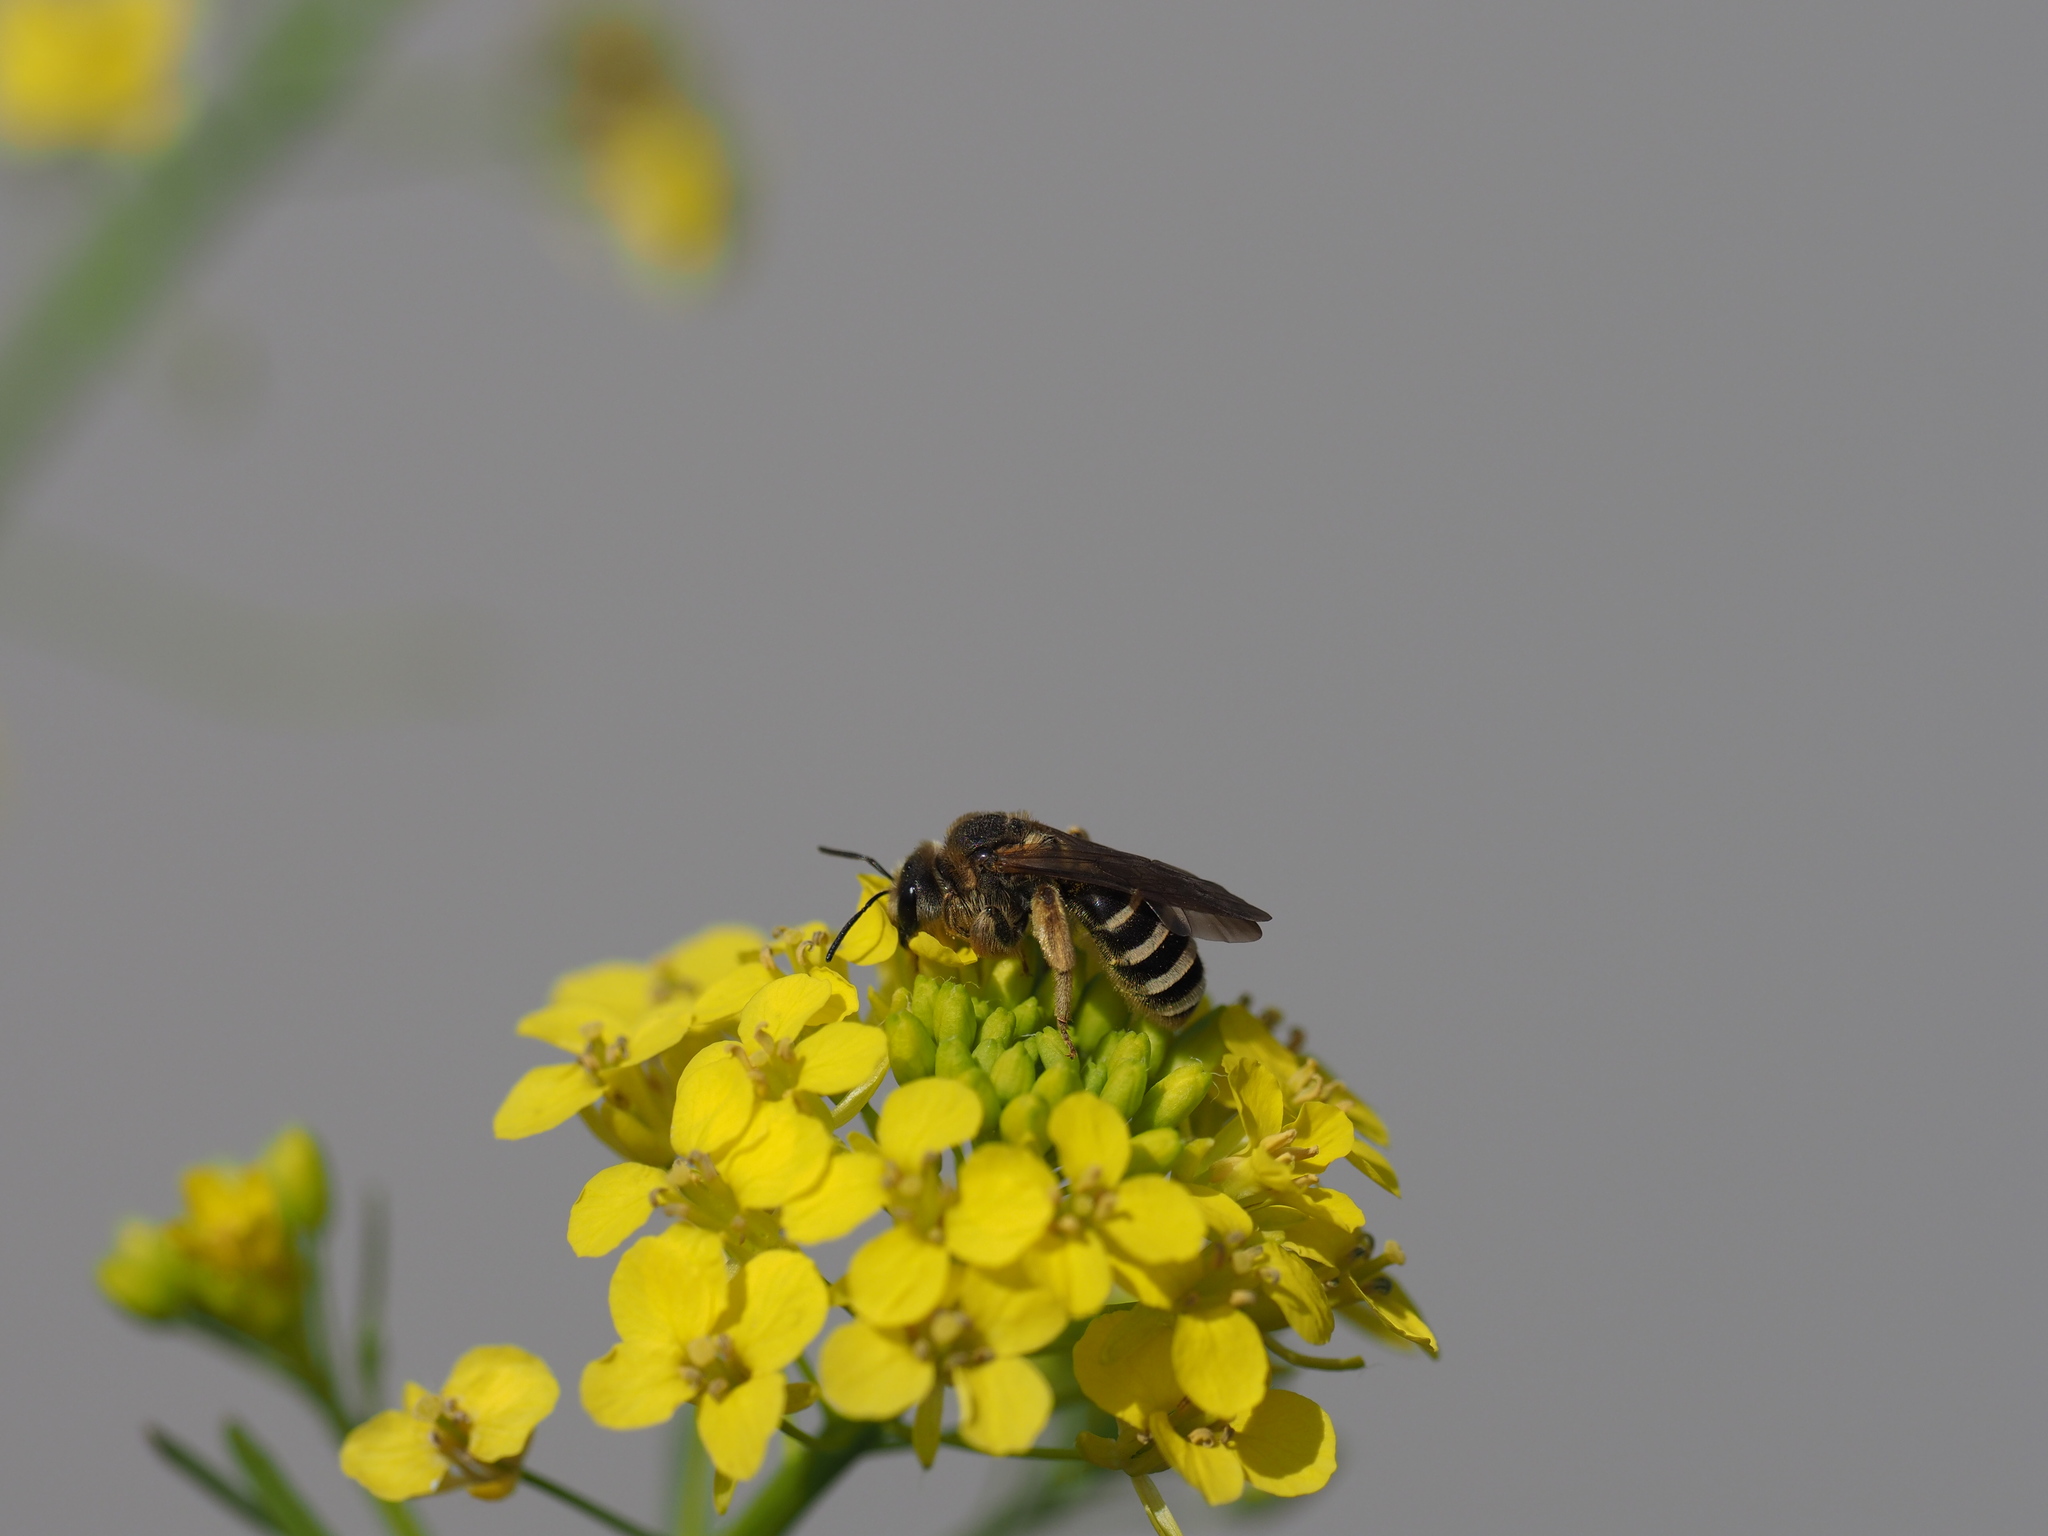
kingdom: Animalia
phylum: Arthropoda
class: Insecta
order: Hymenoptera
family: Halictidae
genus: Halictus
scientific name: Halictus farinosus
